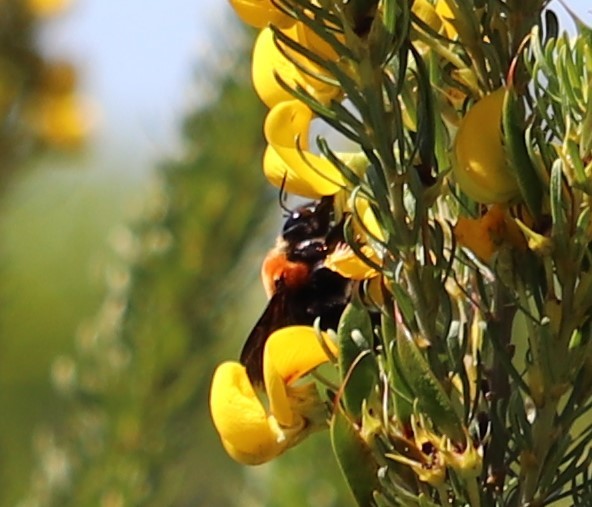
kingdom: Animalia
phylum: Arthropoda
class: Insecta
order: Hymenoptera
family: Apidae
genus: Xylocopa
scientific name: Xylocopa flavorufa
